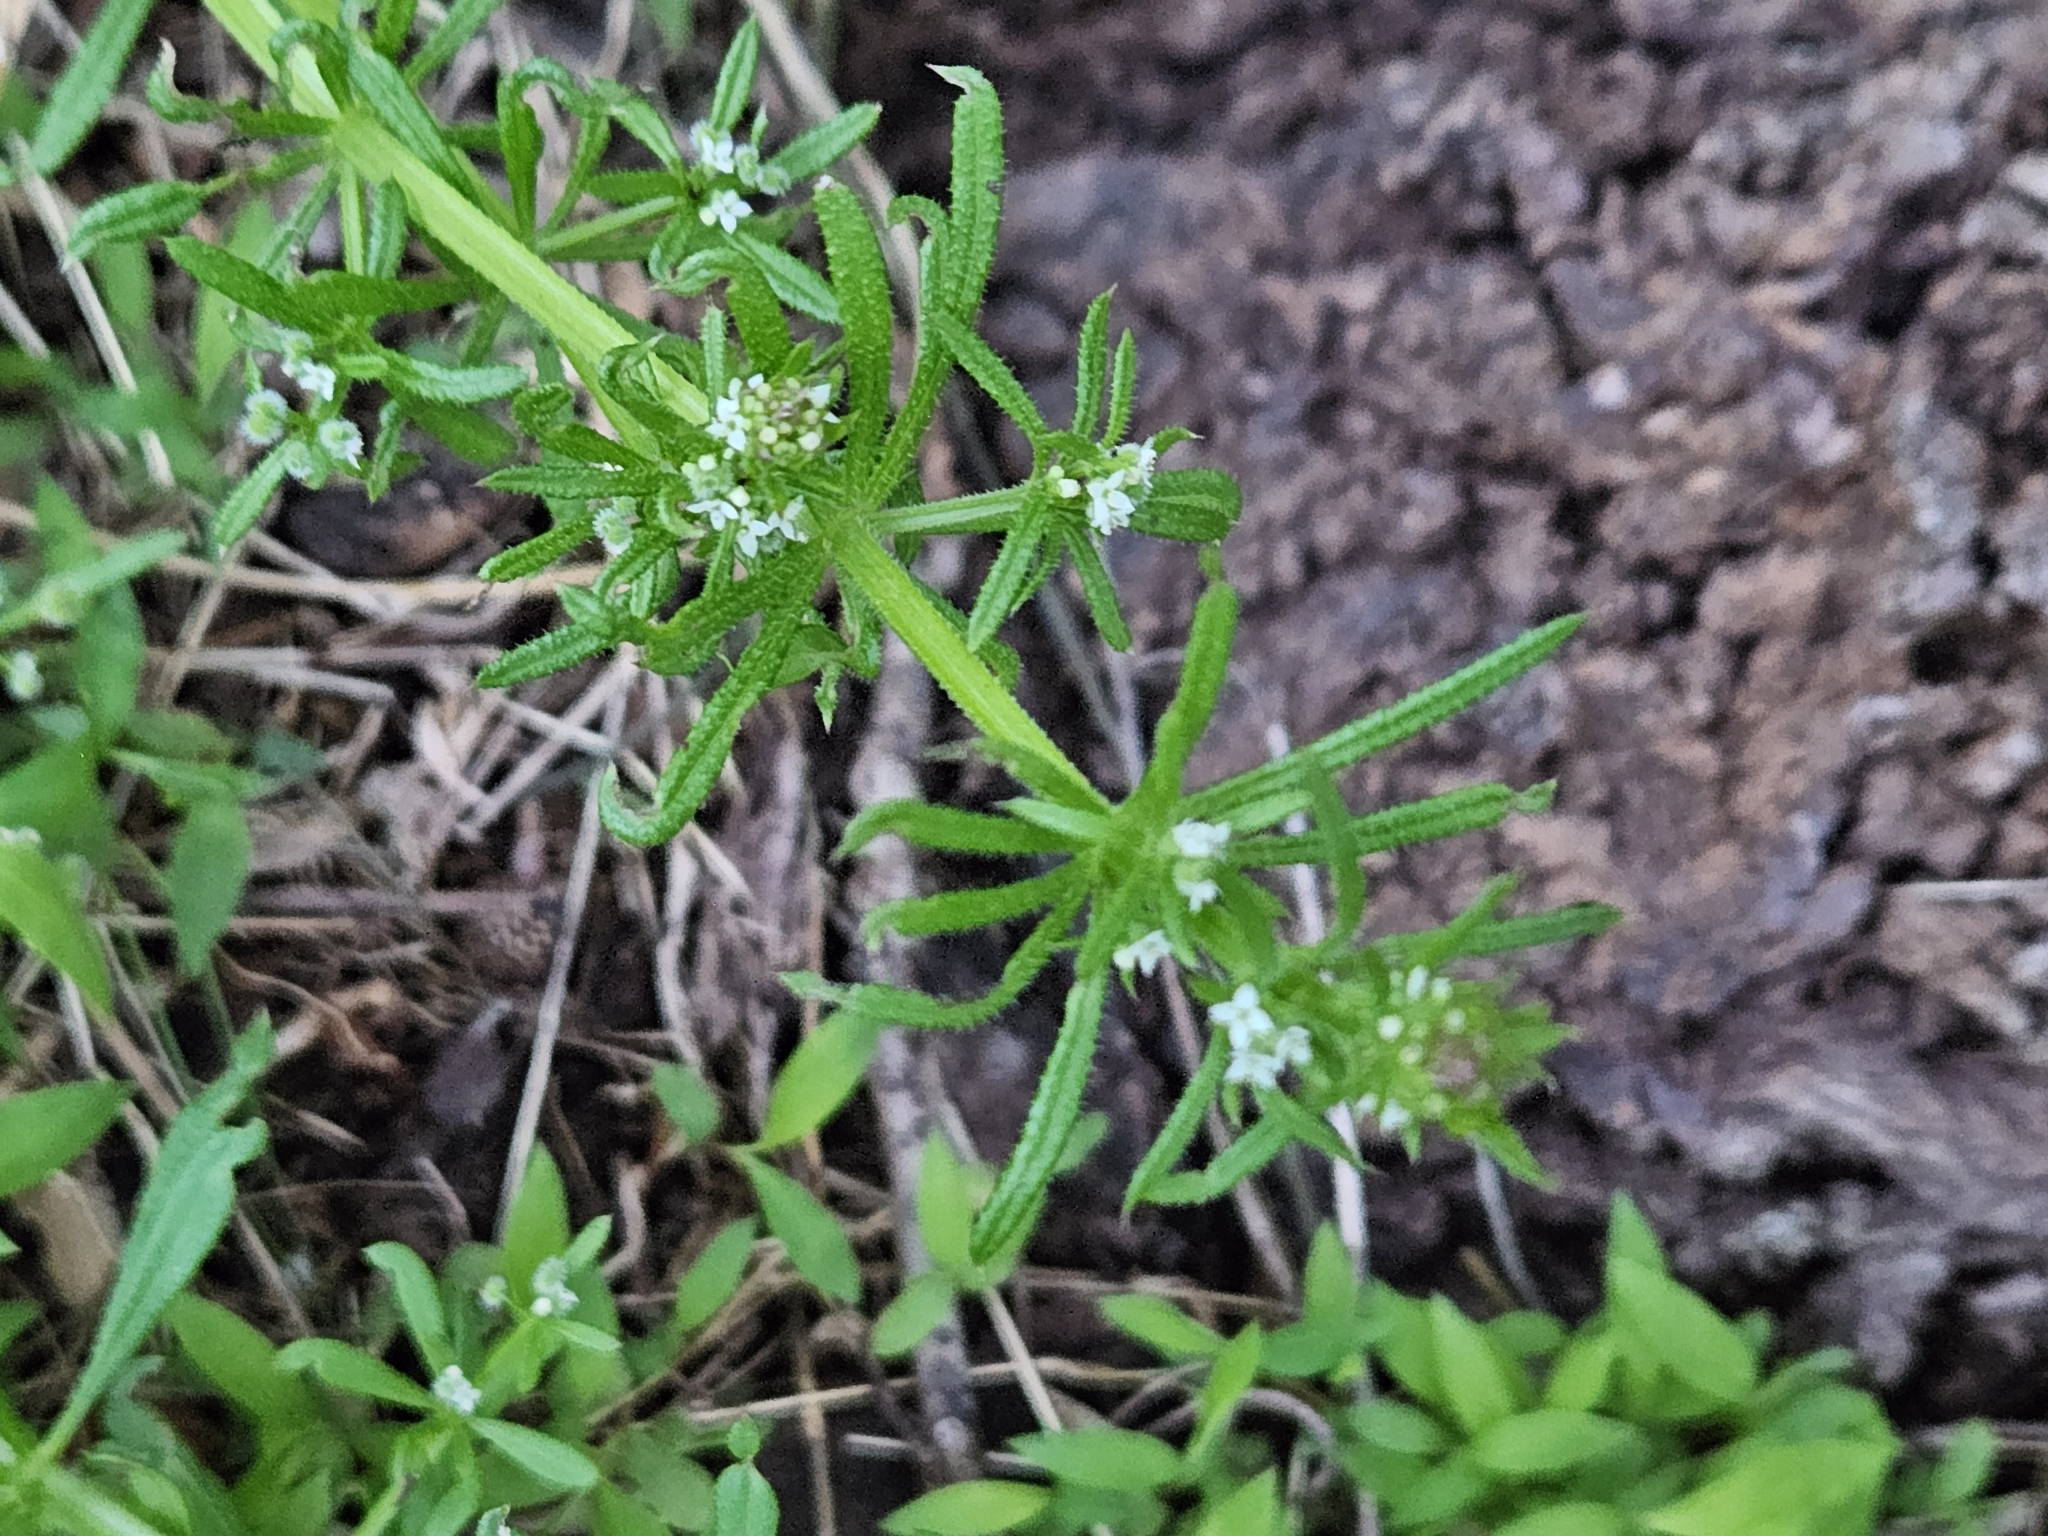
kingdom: Plantae
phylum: Tracheophyta
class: Magnoliopsida
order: Gentianales
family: Rubiaceae
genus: Galium
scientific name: Galium aparine
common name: Cleavers
